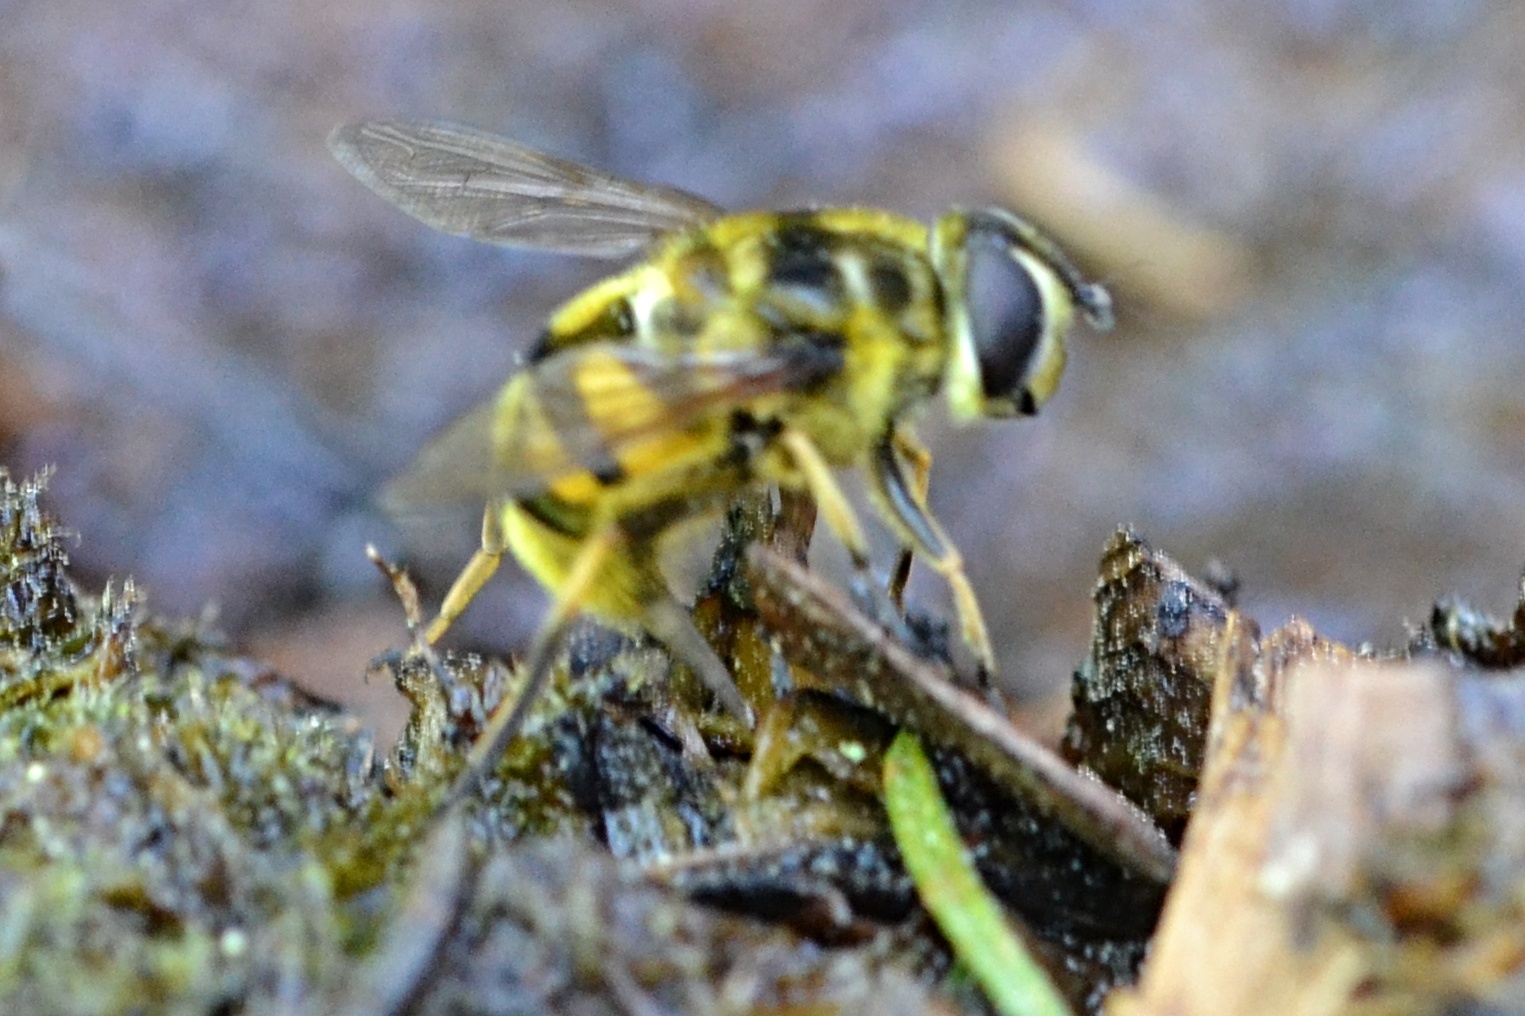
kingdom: Animalia
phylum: Arthropoda
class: Insecta
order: Diptera
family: Syrphidae
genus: Myathropa
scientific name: Myathropa florea
